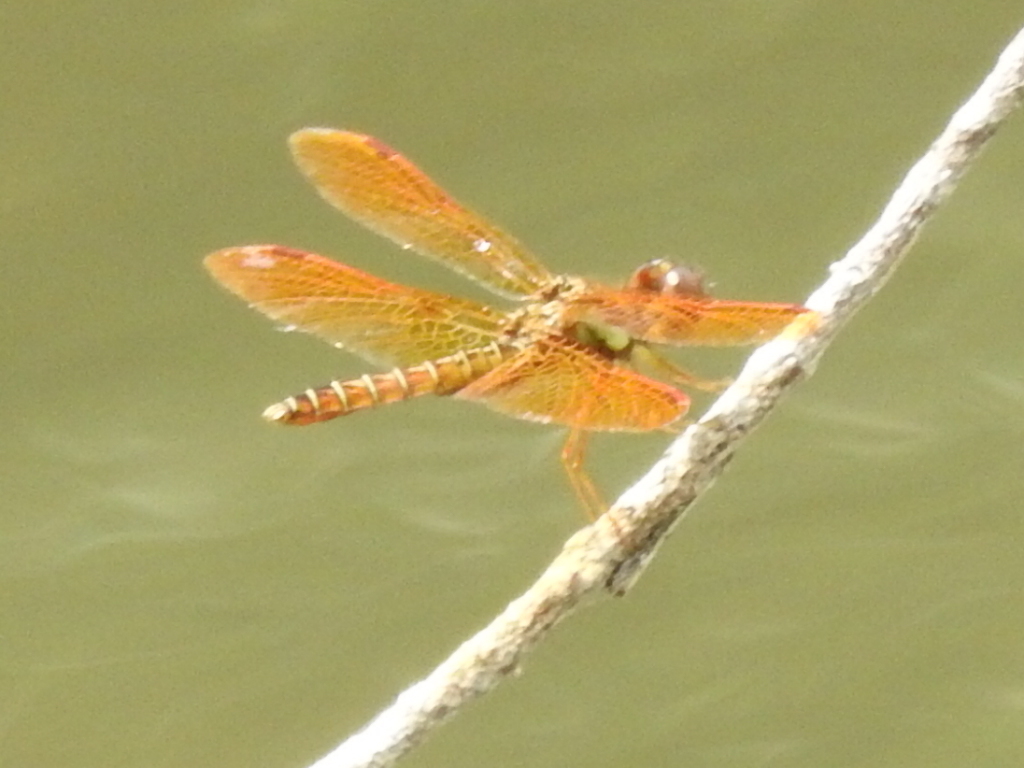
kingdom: Animalia
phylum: Arthropoda
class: Insecta
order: Odonata
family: Libellulidae
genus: Perithemis
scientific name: Perithemis tenera
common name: Eastern amberwing
